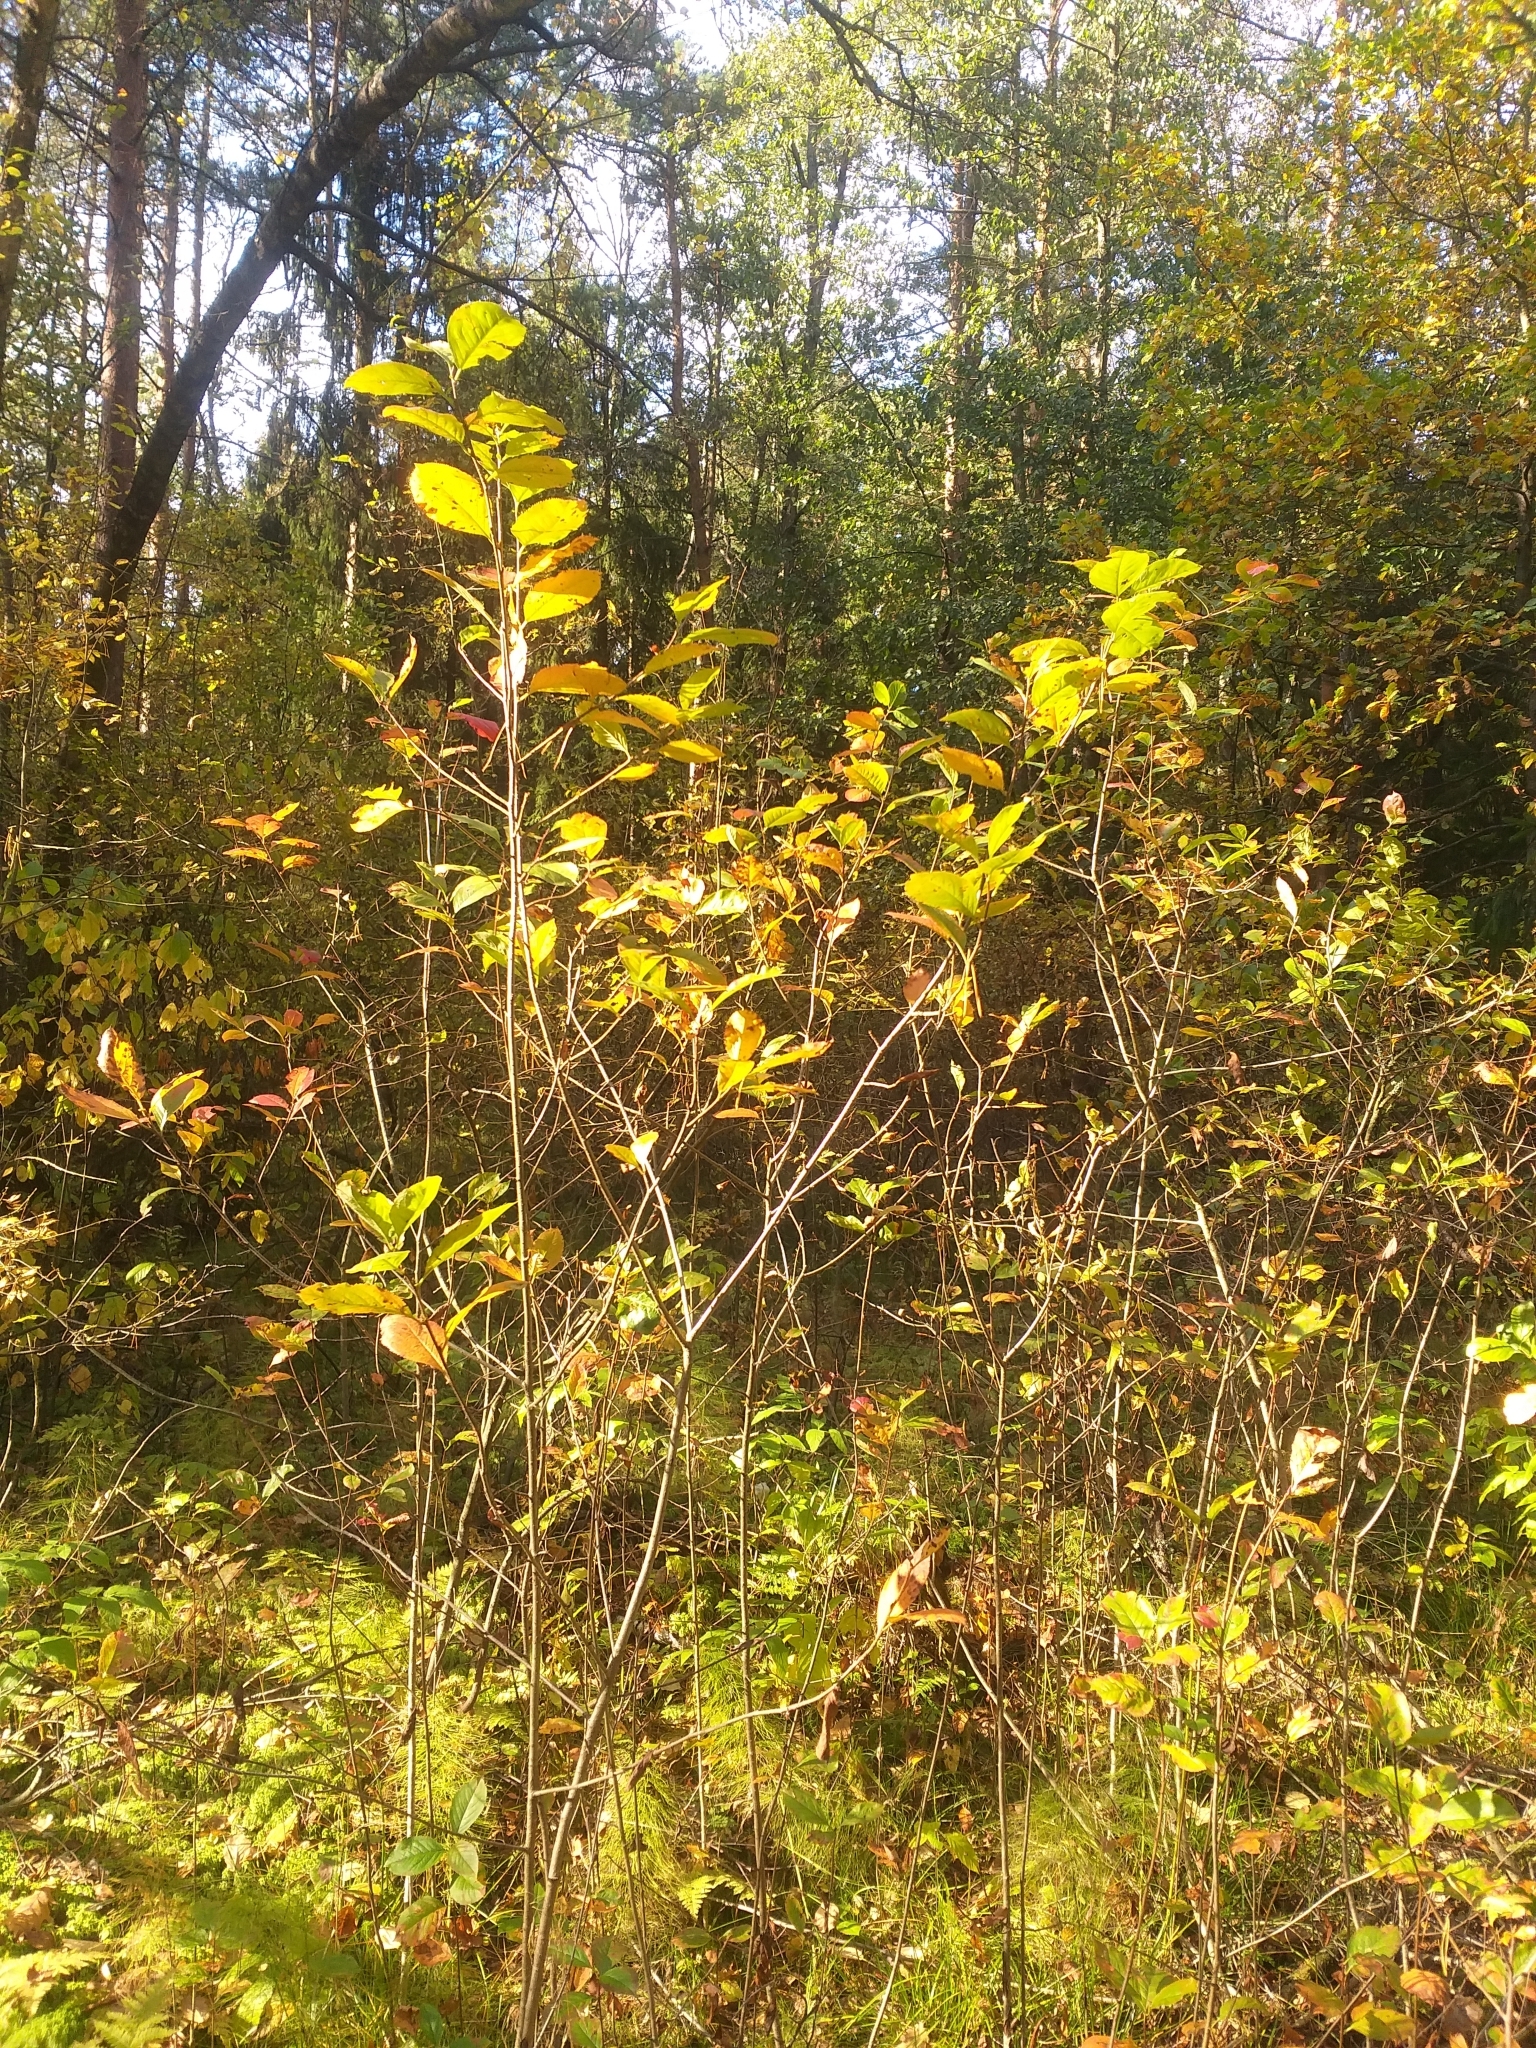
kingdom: Plantae
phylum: Tracheophyta
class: Magnoliopsida
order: Rosales
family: Rosaceae
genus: Sorbaronia
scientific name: Sorbaronia arsenii
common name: Arsène's mountain-ash
